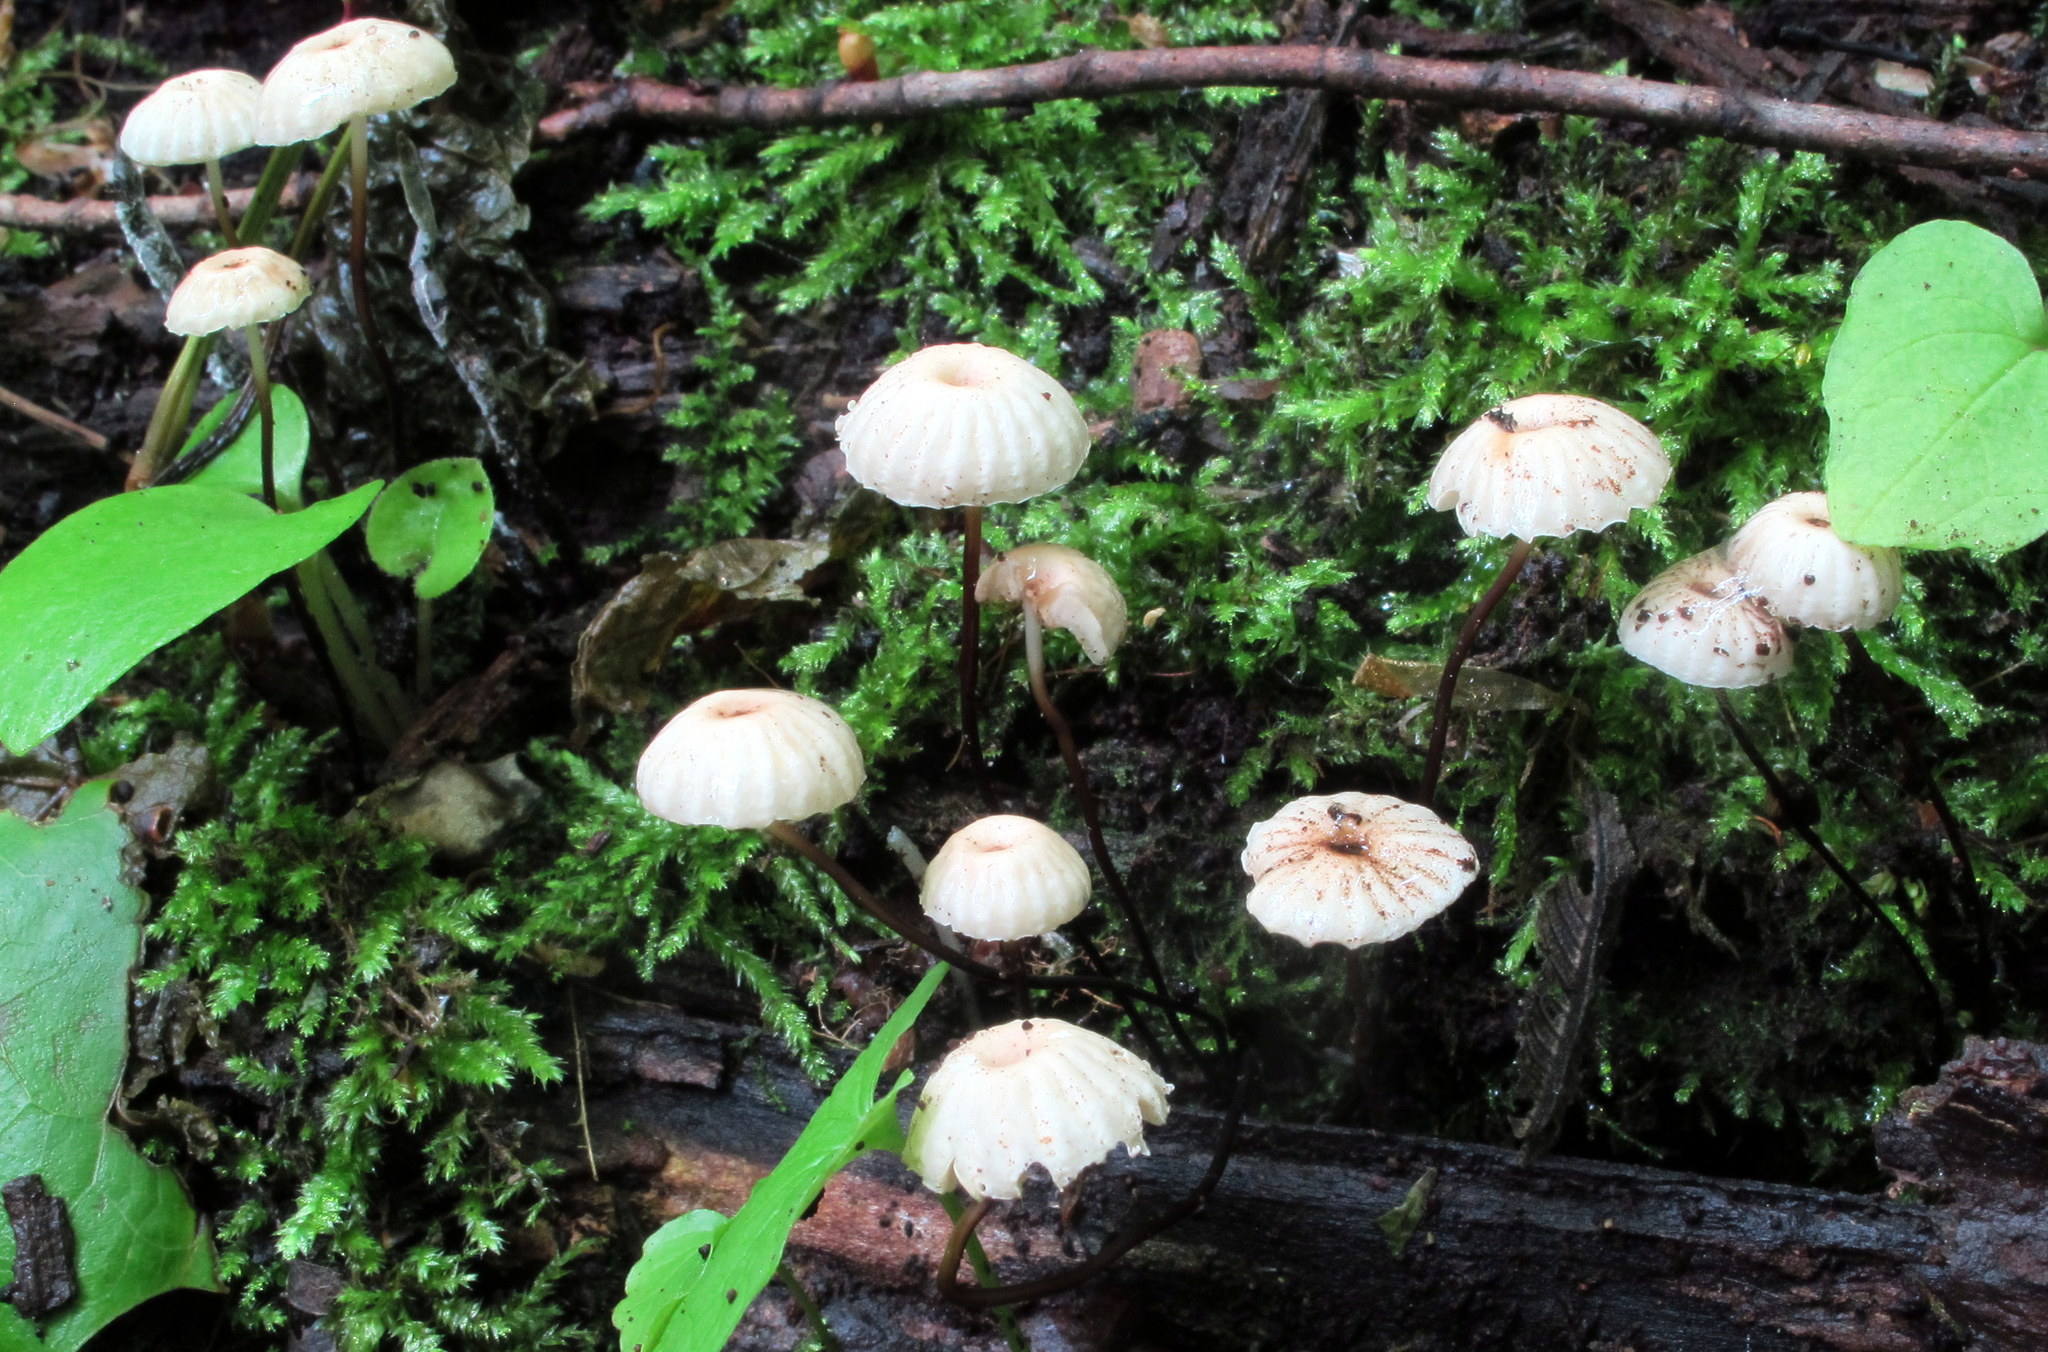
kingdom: Fungi
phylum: Basidiomycota
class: Agaricomycetes
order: Agaricales
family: Marasmiaceae
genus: Marasmius
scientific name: Marasmius rotula
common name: Collared parachute
